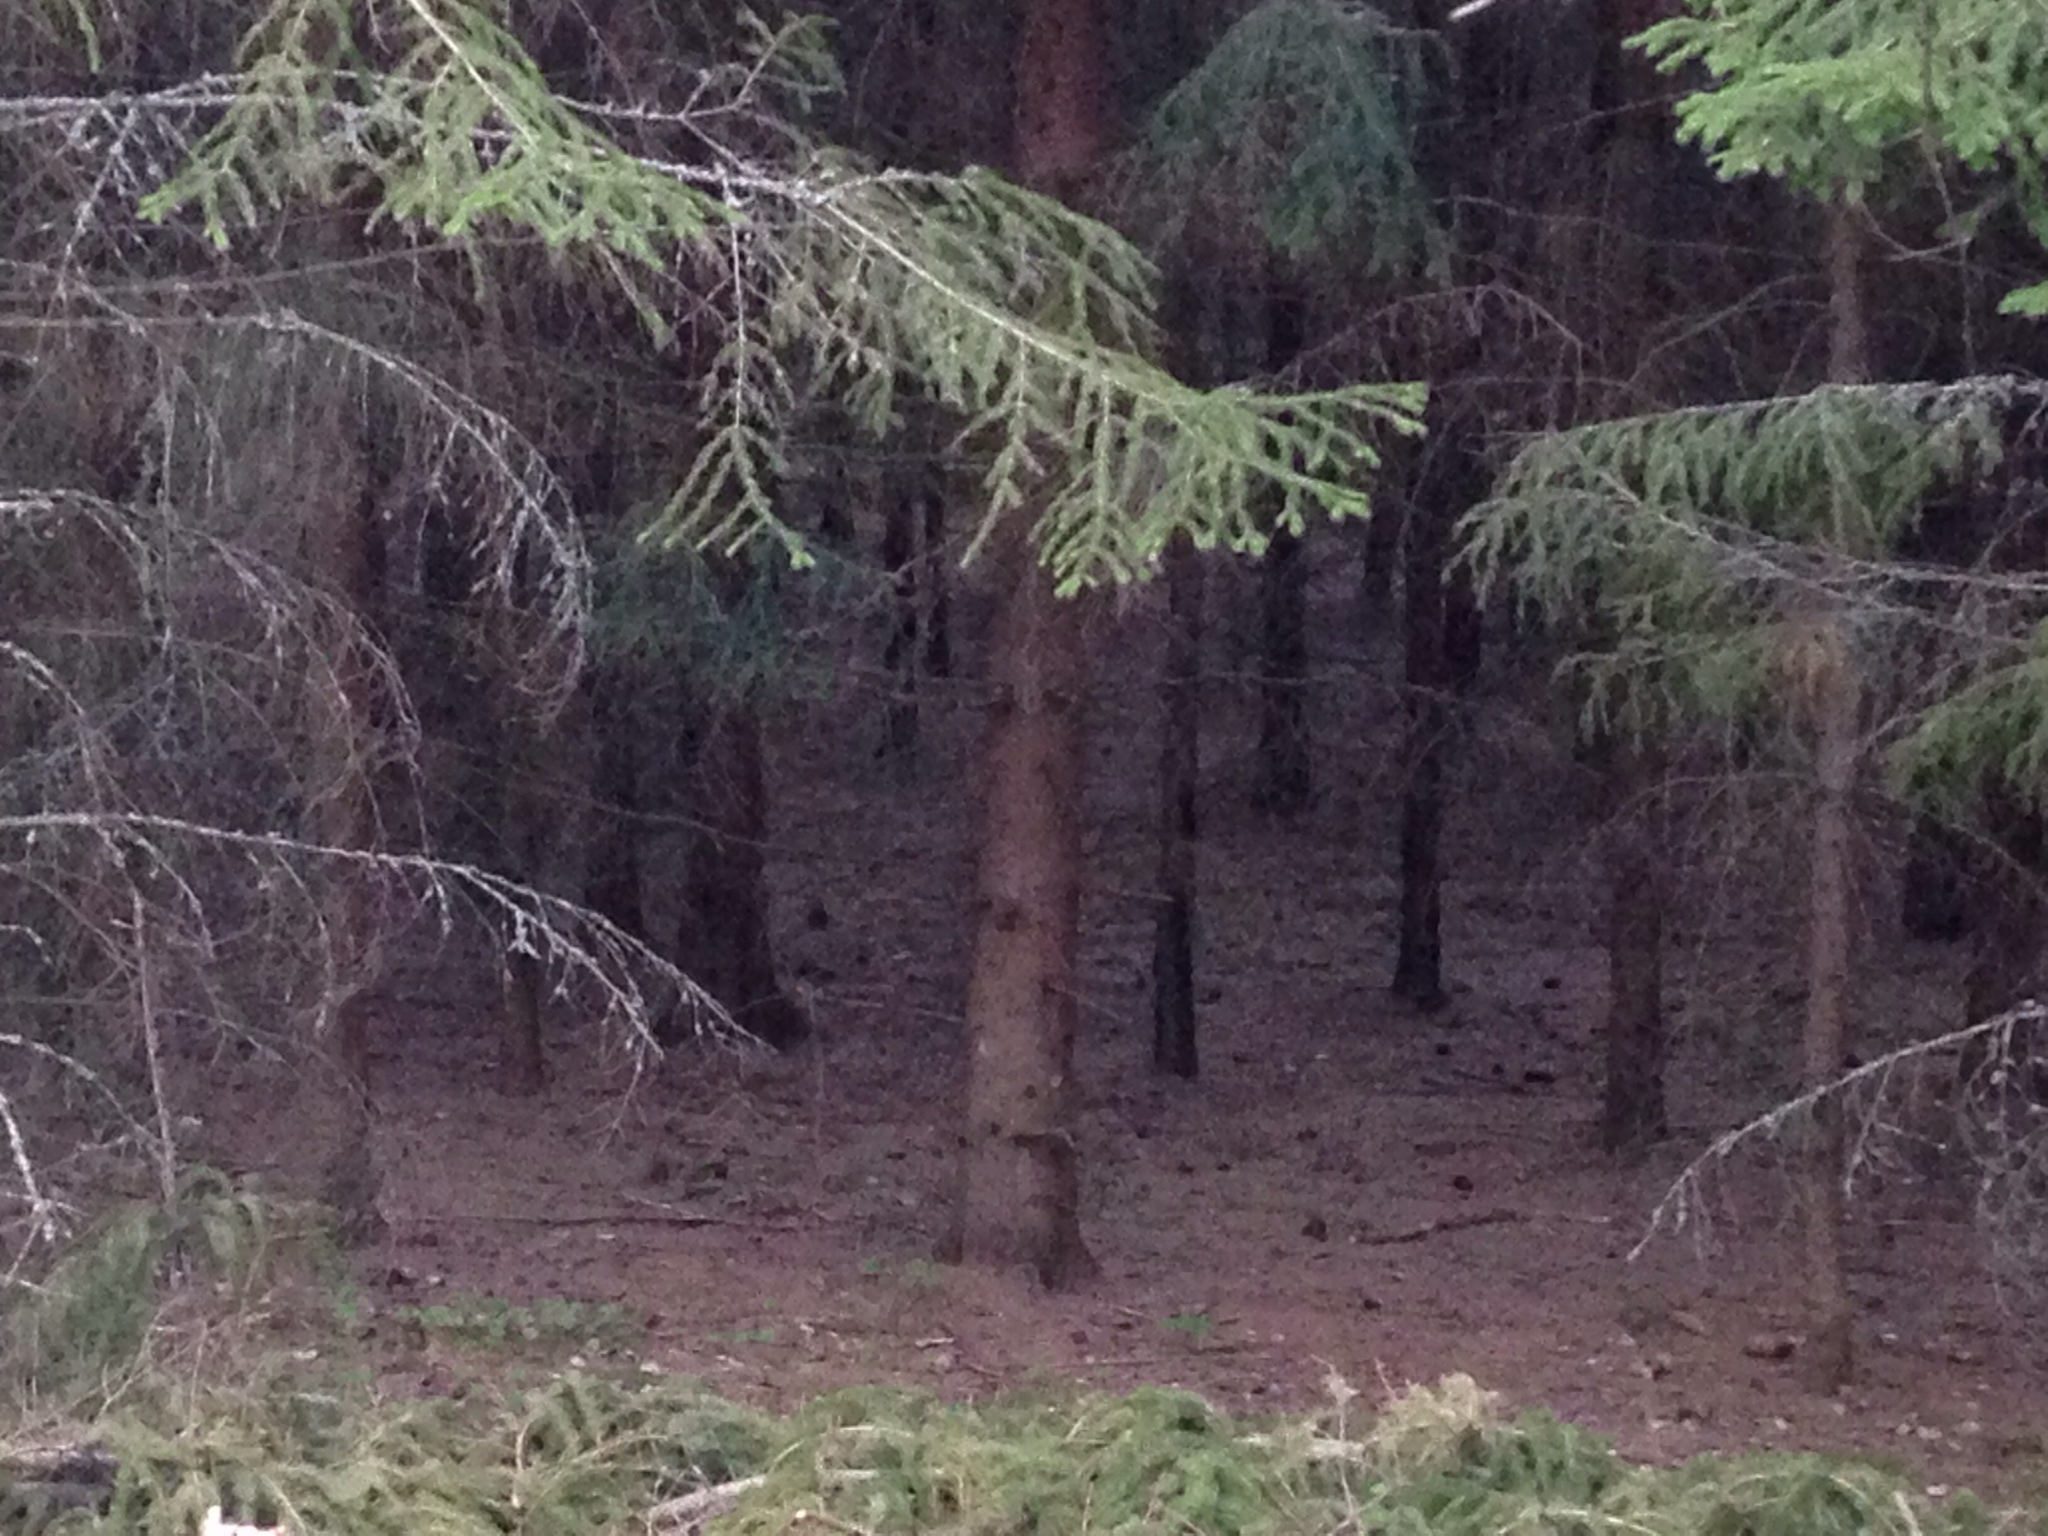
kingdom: Plantae
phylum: Tracheophyta
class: Pinopsida
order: Pinales
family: Pinaceae
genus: Picea
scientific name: Picea abies
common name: Norway spruce
